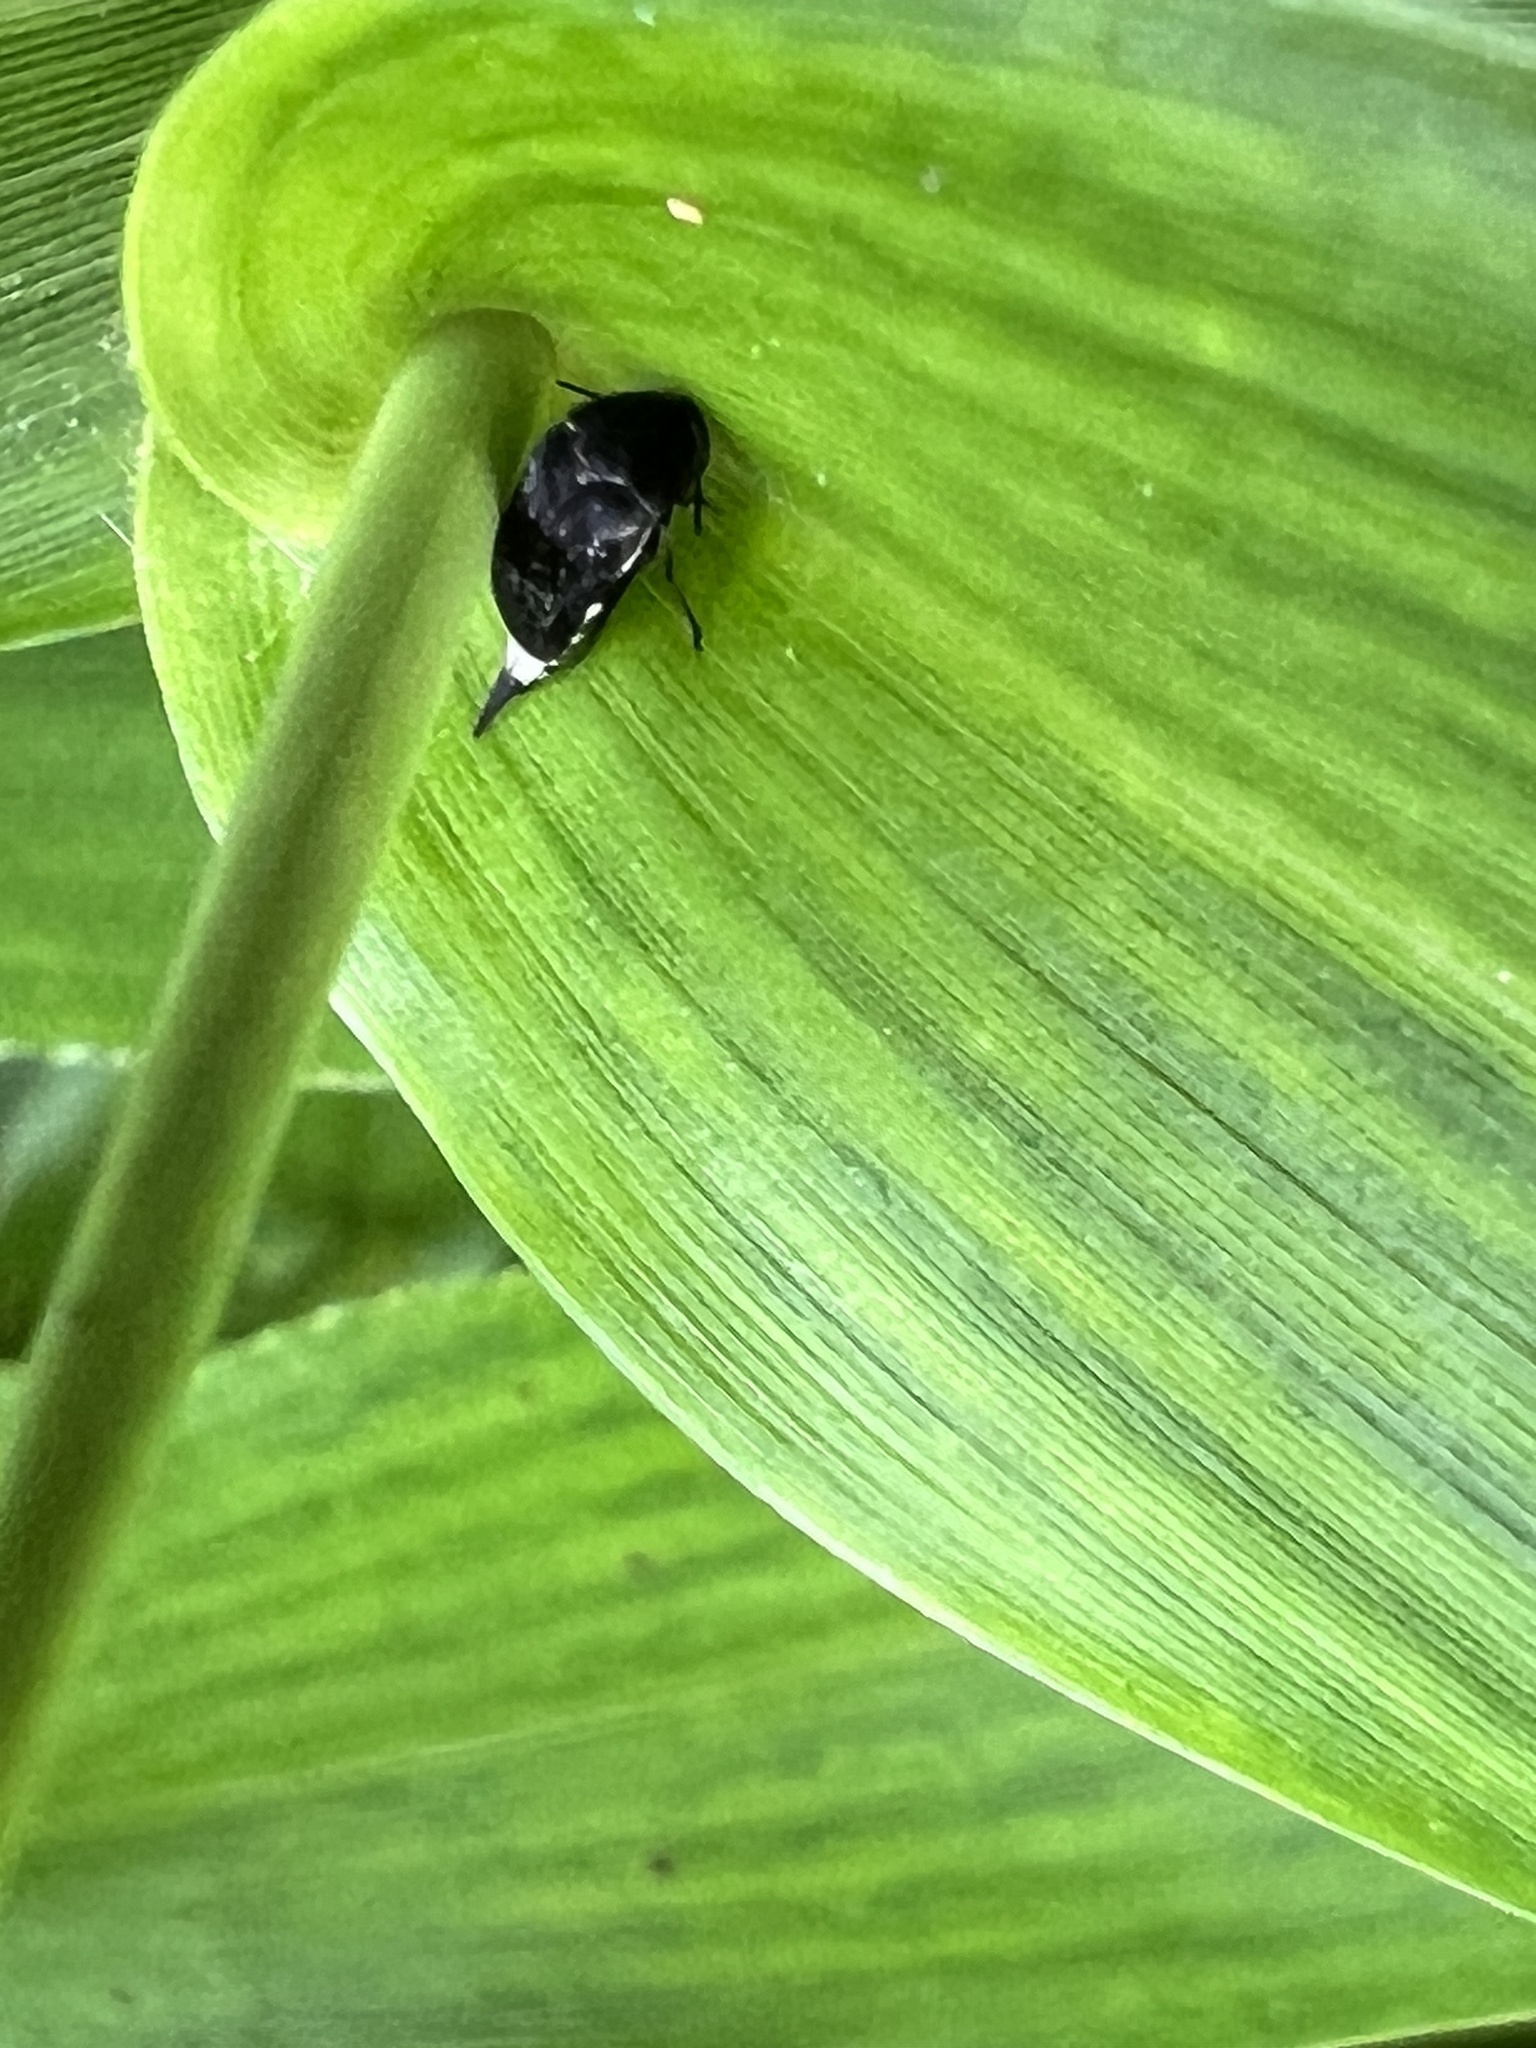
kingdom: Animalia
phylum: Arthropoda
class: Insecta
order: Coleoptera
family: Mordellidae
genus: Mordella
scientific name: Mordella marginata
